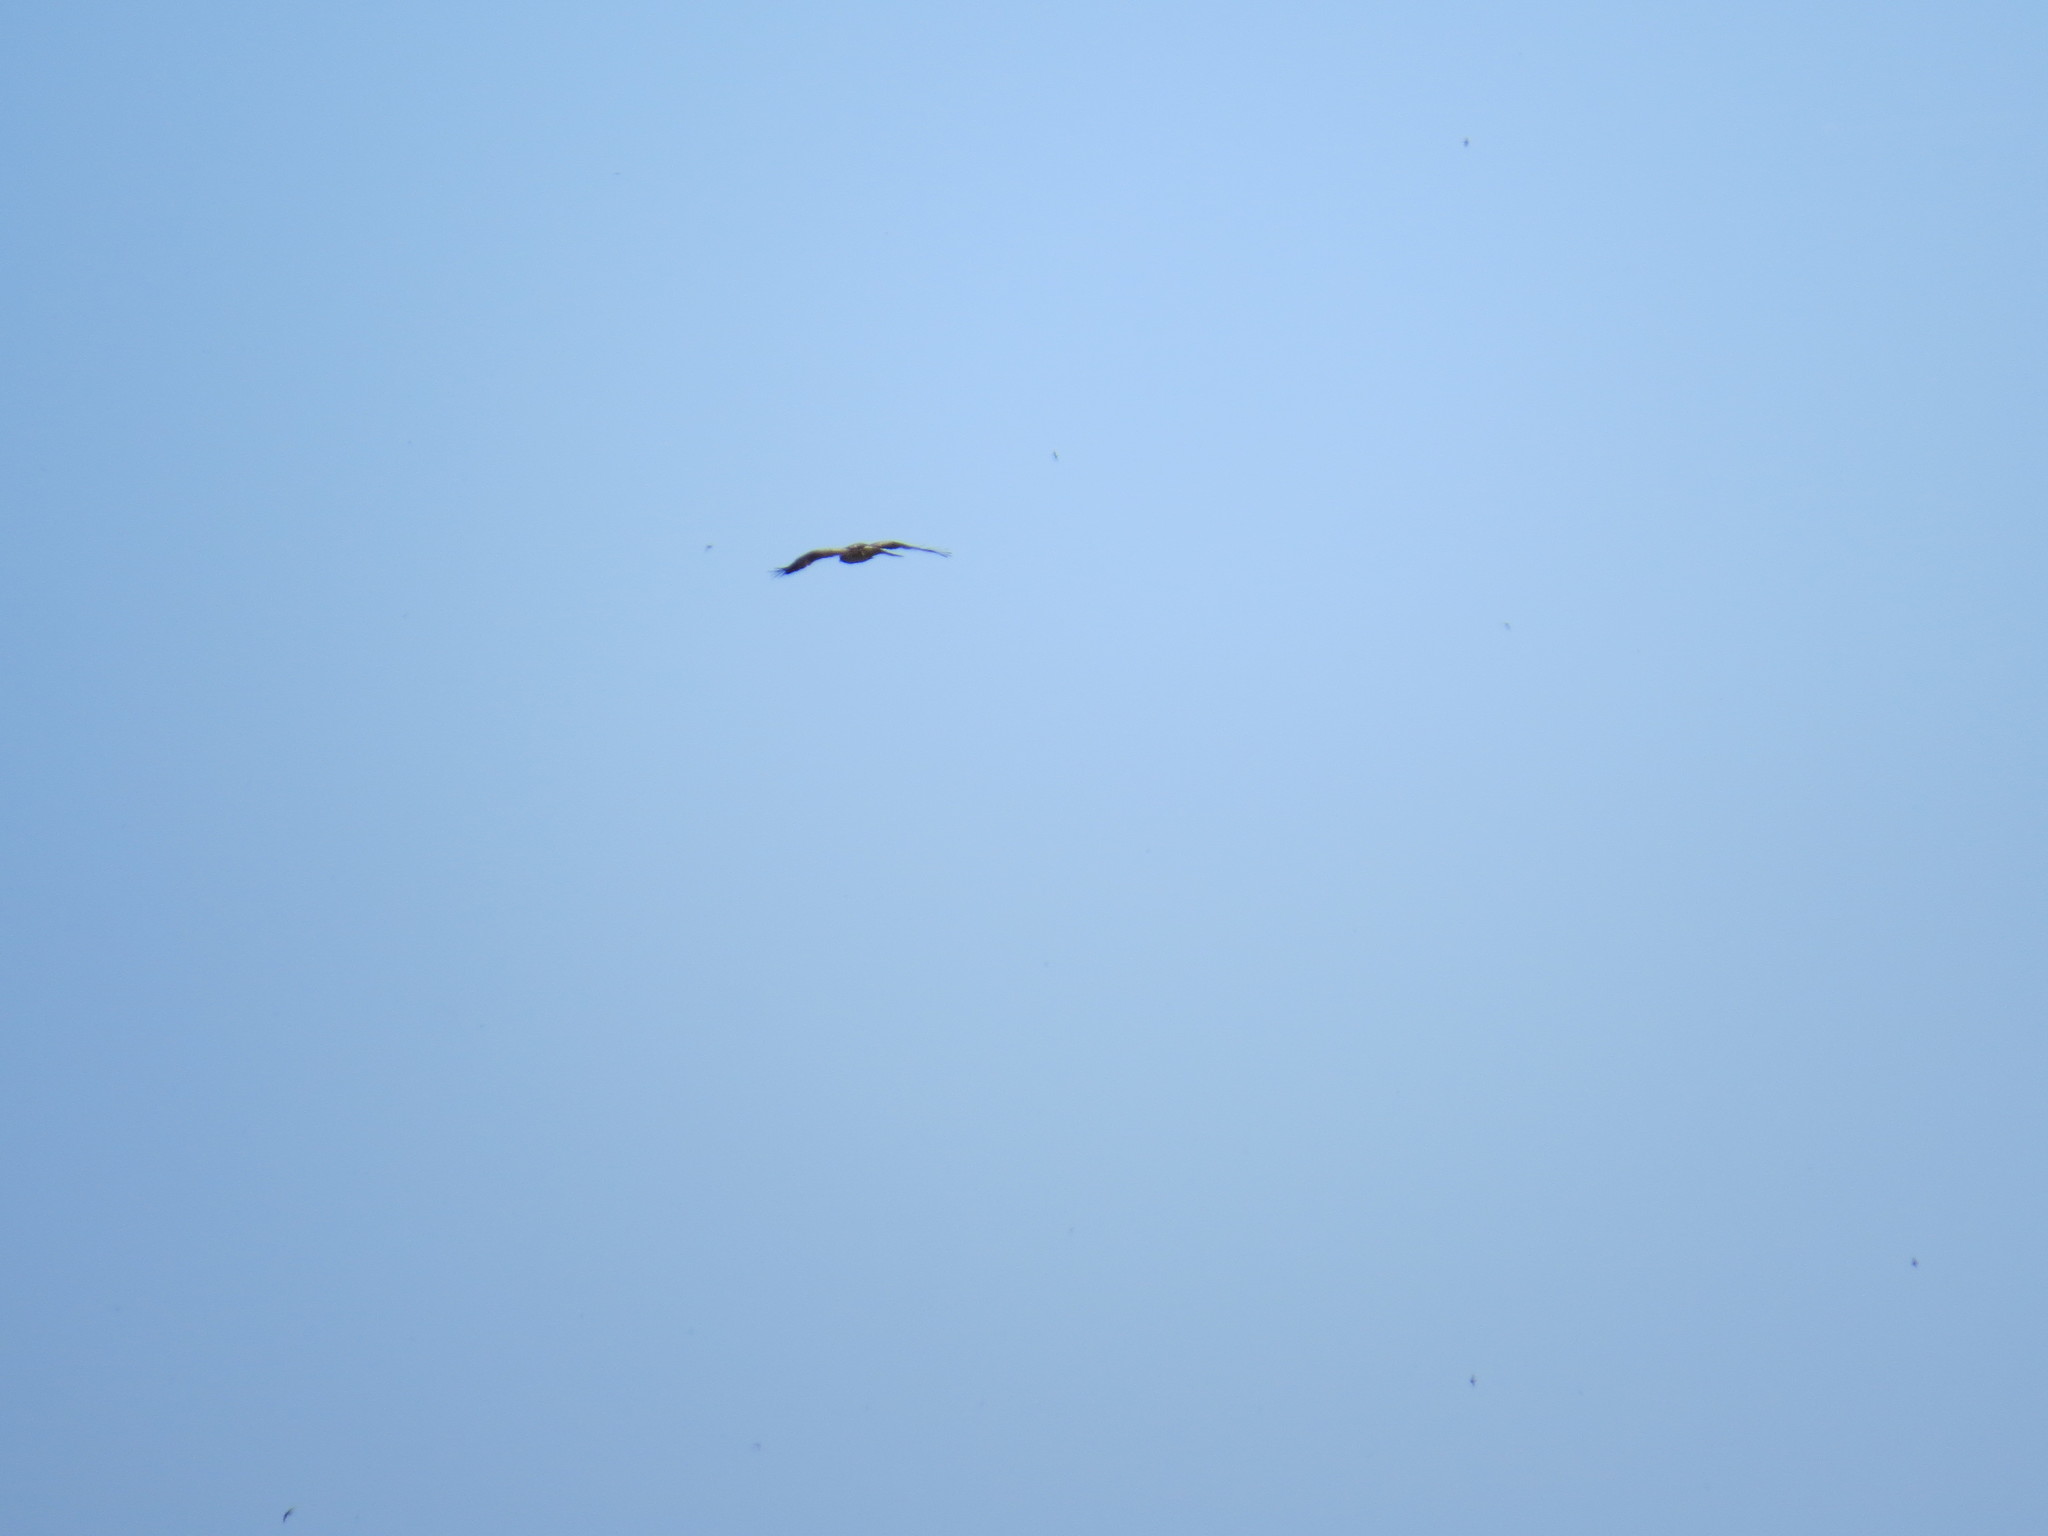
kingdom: Animalia
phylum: Chordata
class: Aves
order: Accipitriformes
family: Accipitridae
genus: Hieraaetus
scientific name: Hieraaetus pennatus
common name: Booted eagle
